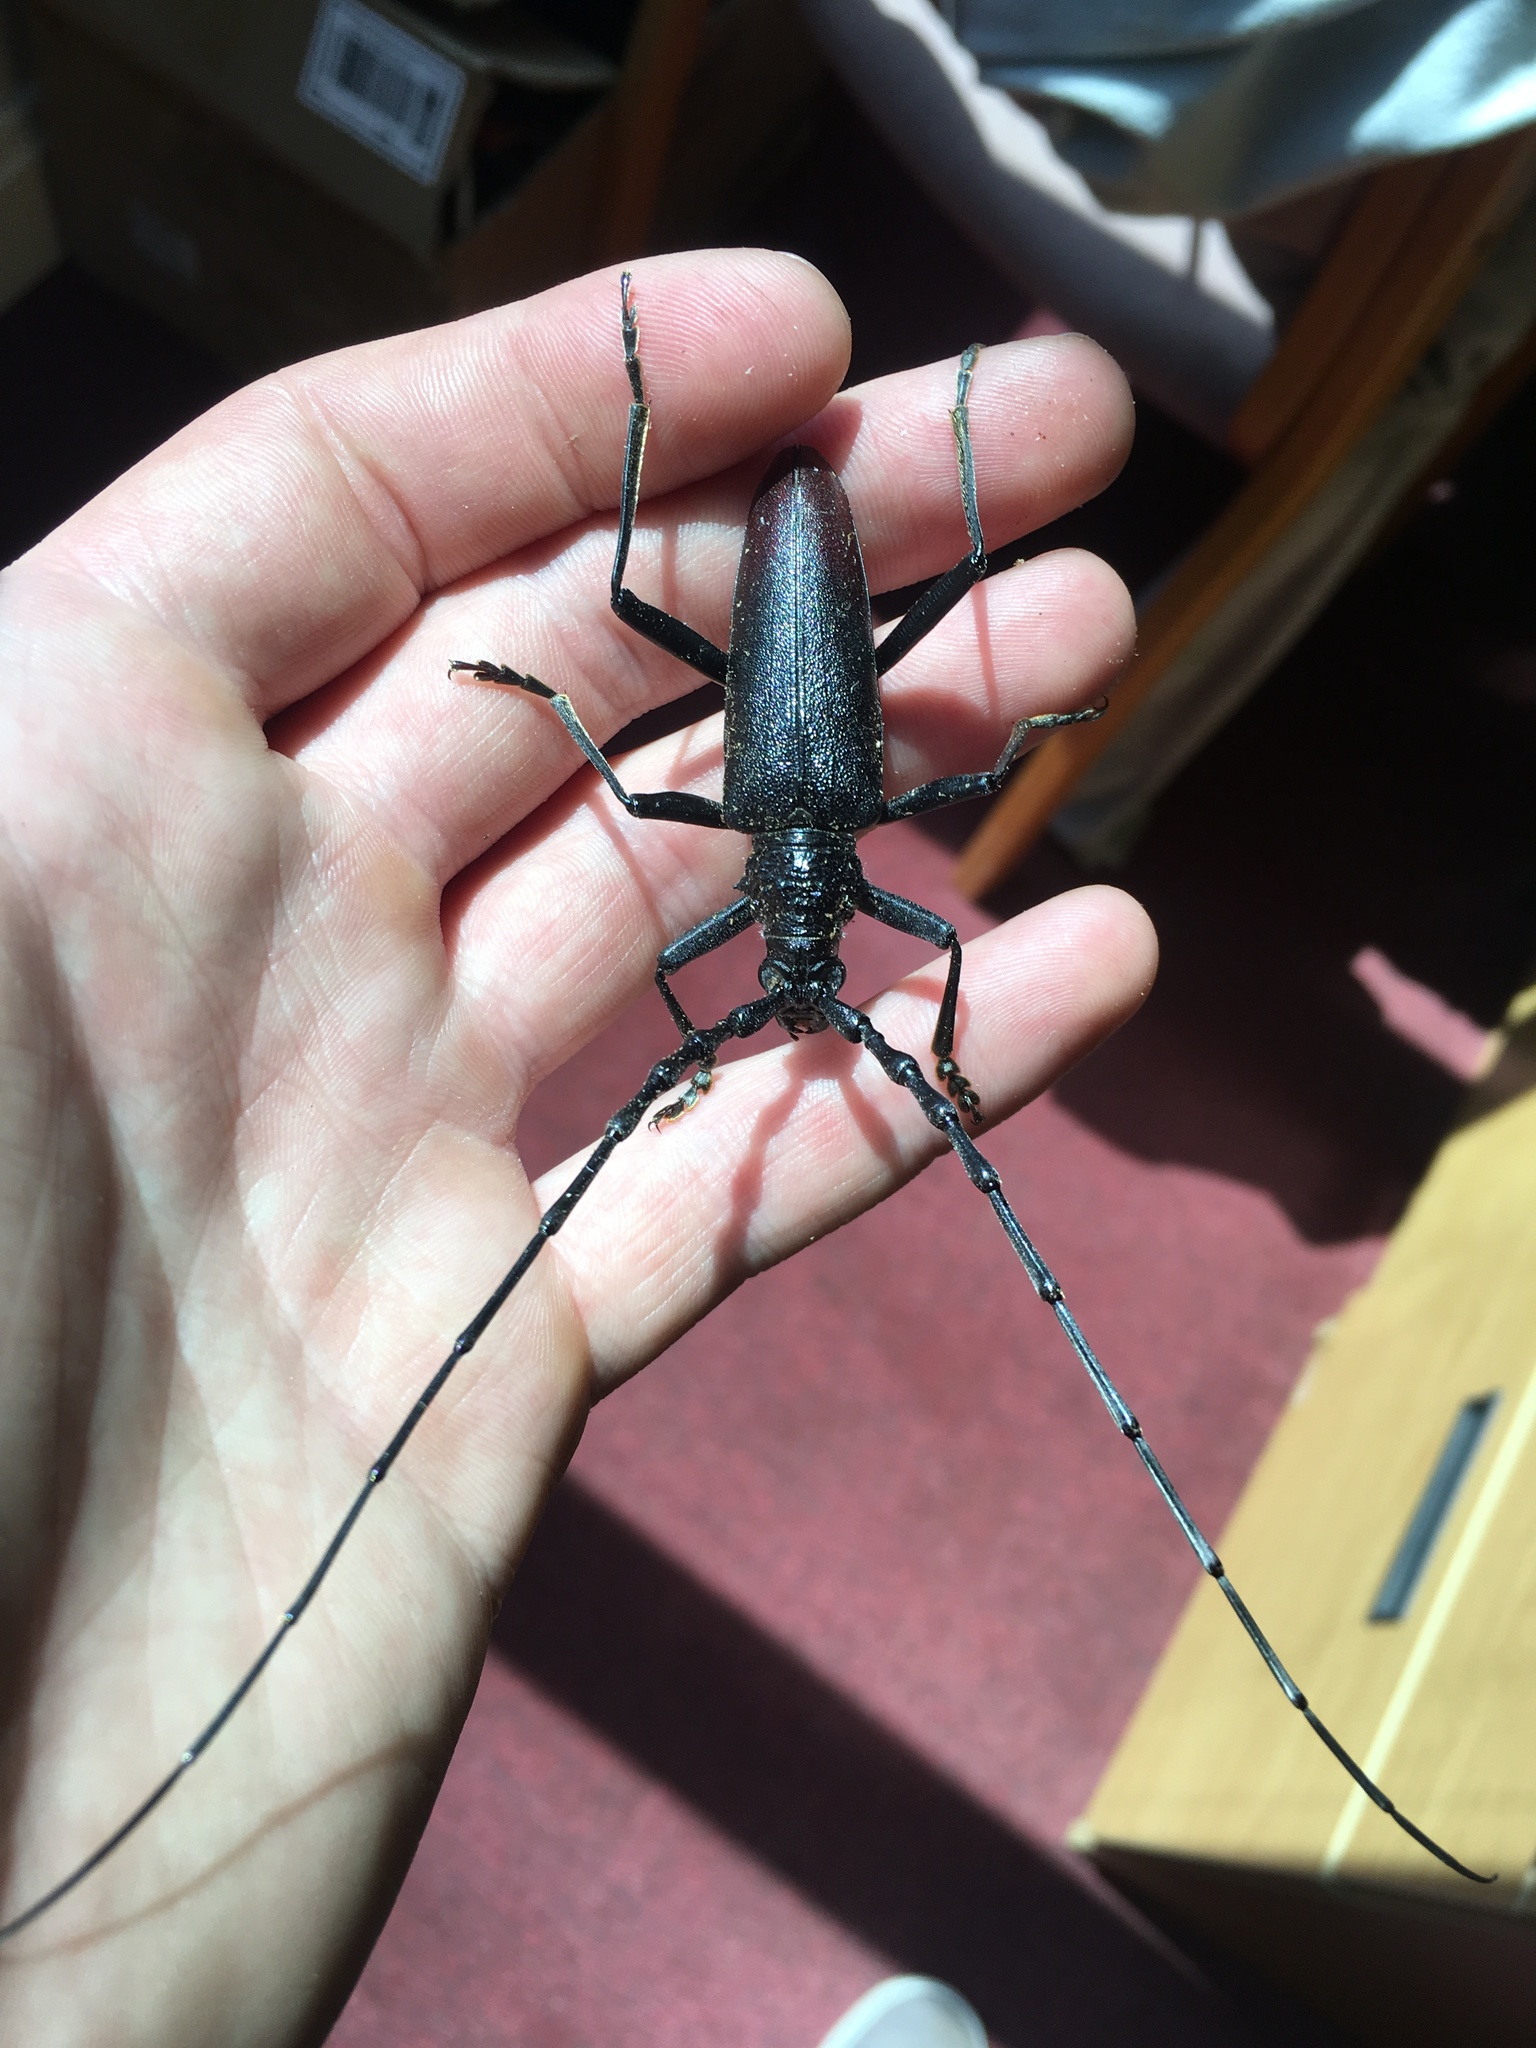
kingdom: Animalia
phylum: Arthropoda
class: Insecta
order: Coleoptera
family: Cerambycidae
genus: Cerambyx
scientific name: Cerambyx cerdo
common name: Cerambyx longicorn
